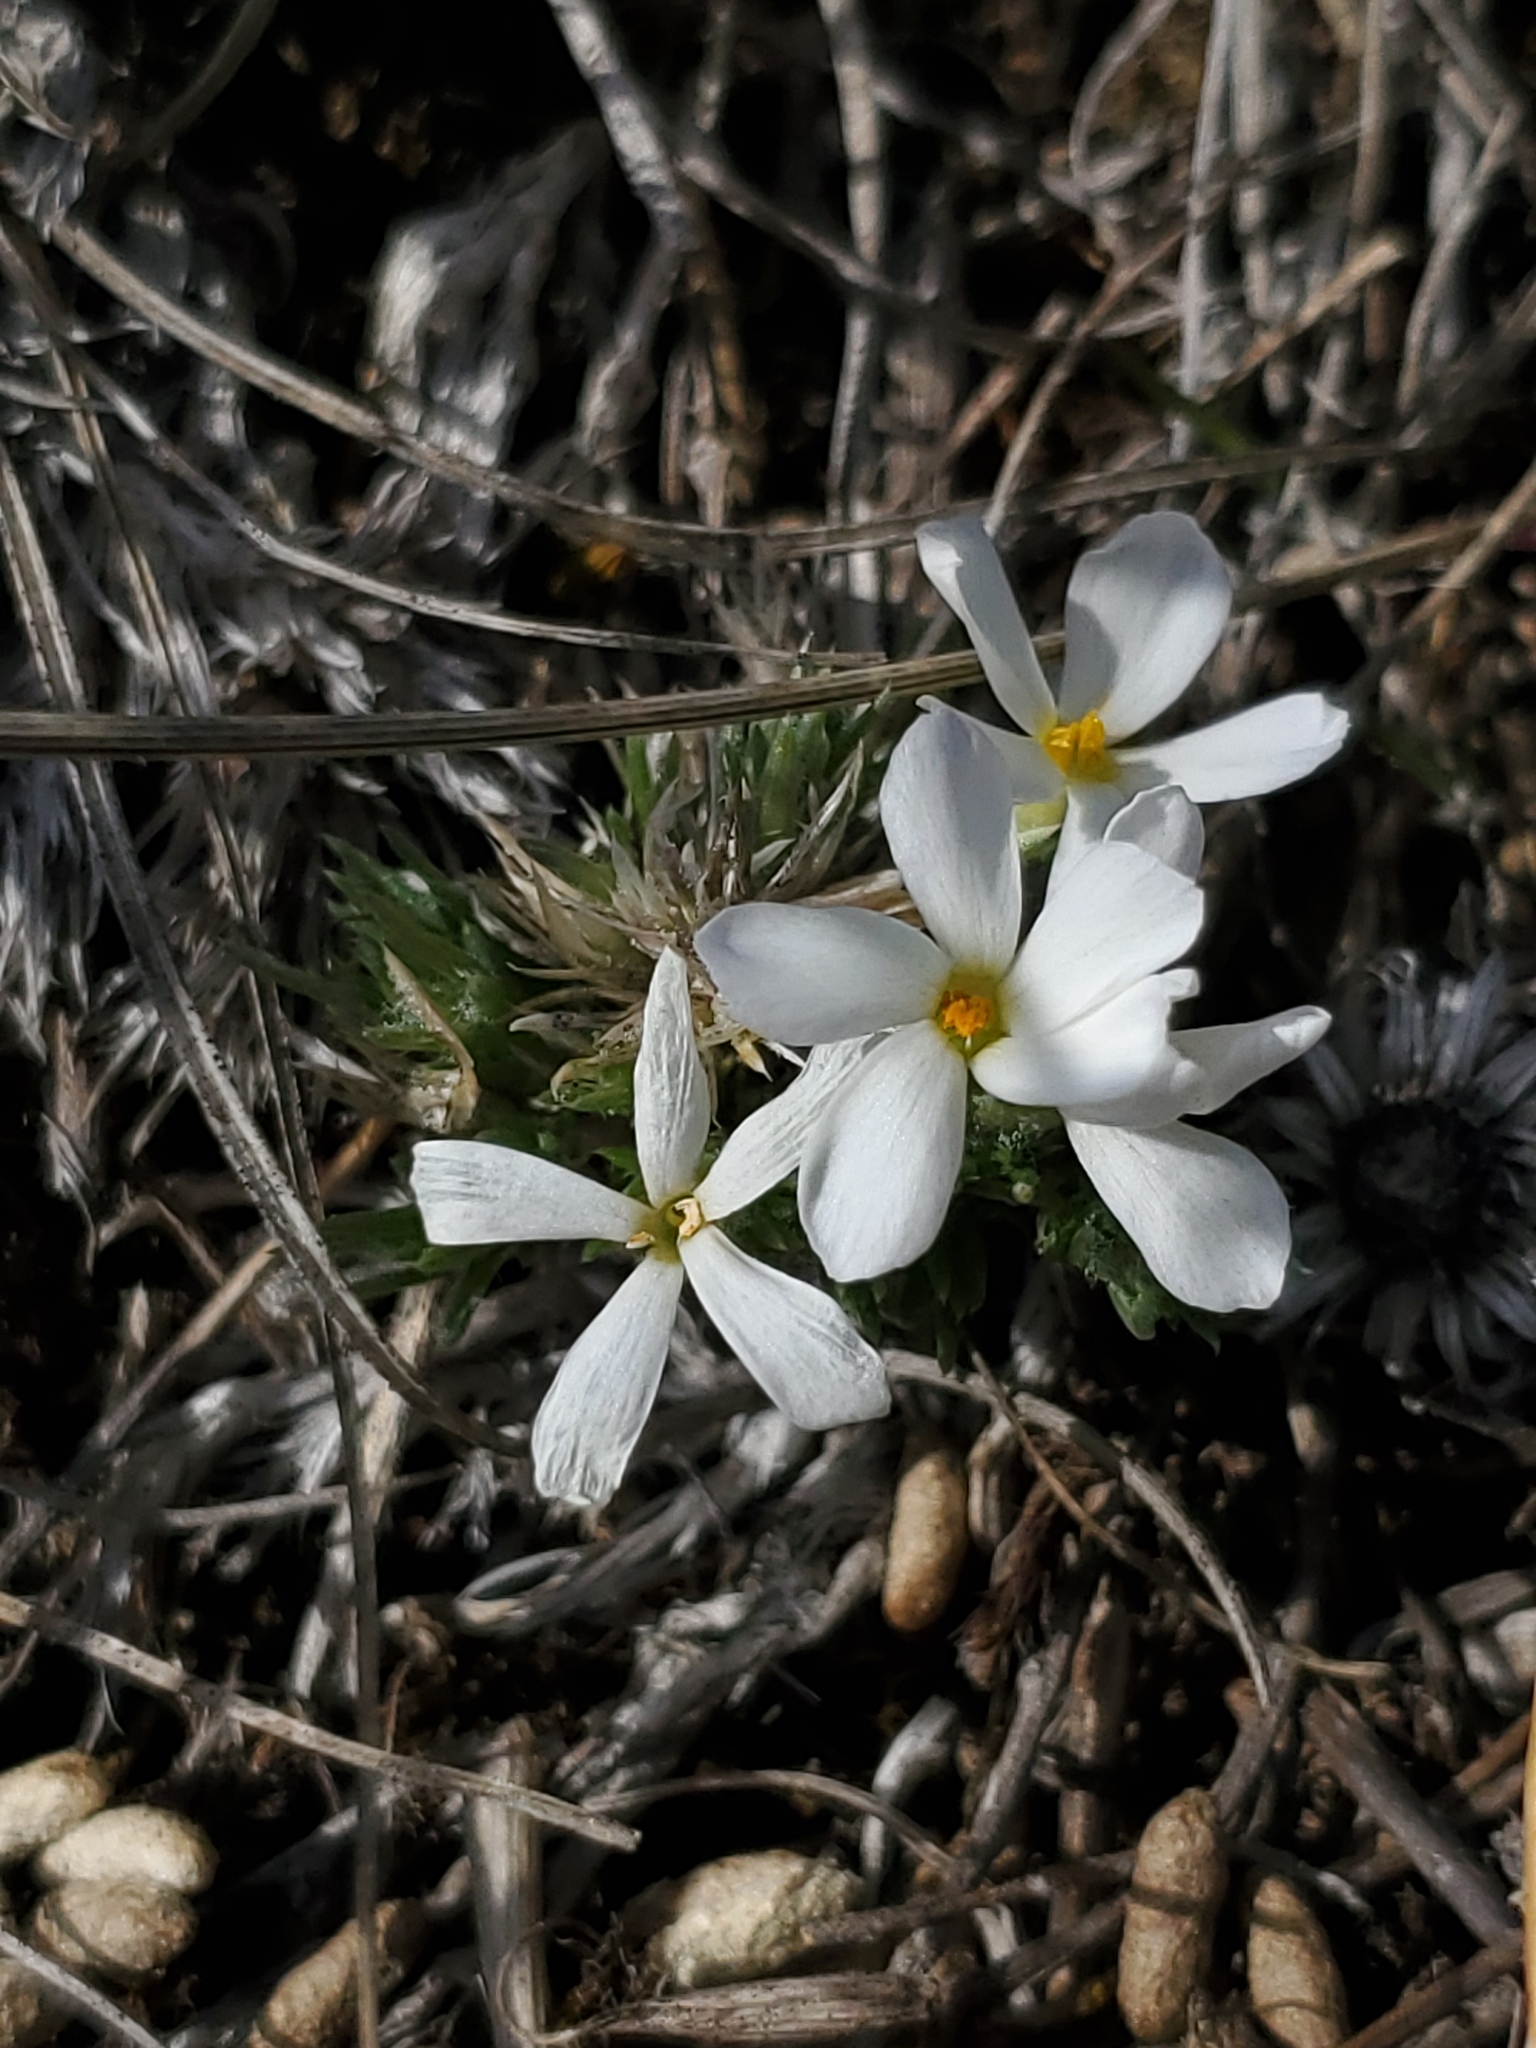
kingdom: Plantae
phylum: Tracheophyta
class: Magnoliopsida
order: Ericales
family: Polemoniaceae
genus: Phlox
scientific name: Phlox hoodii
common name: Moss phlox
